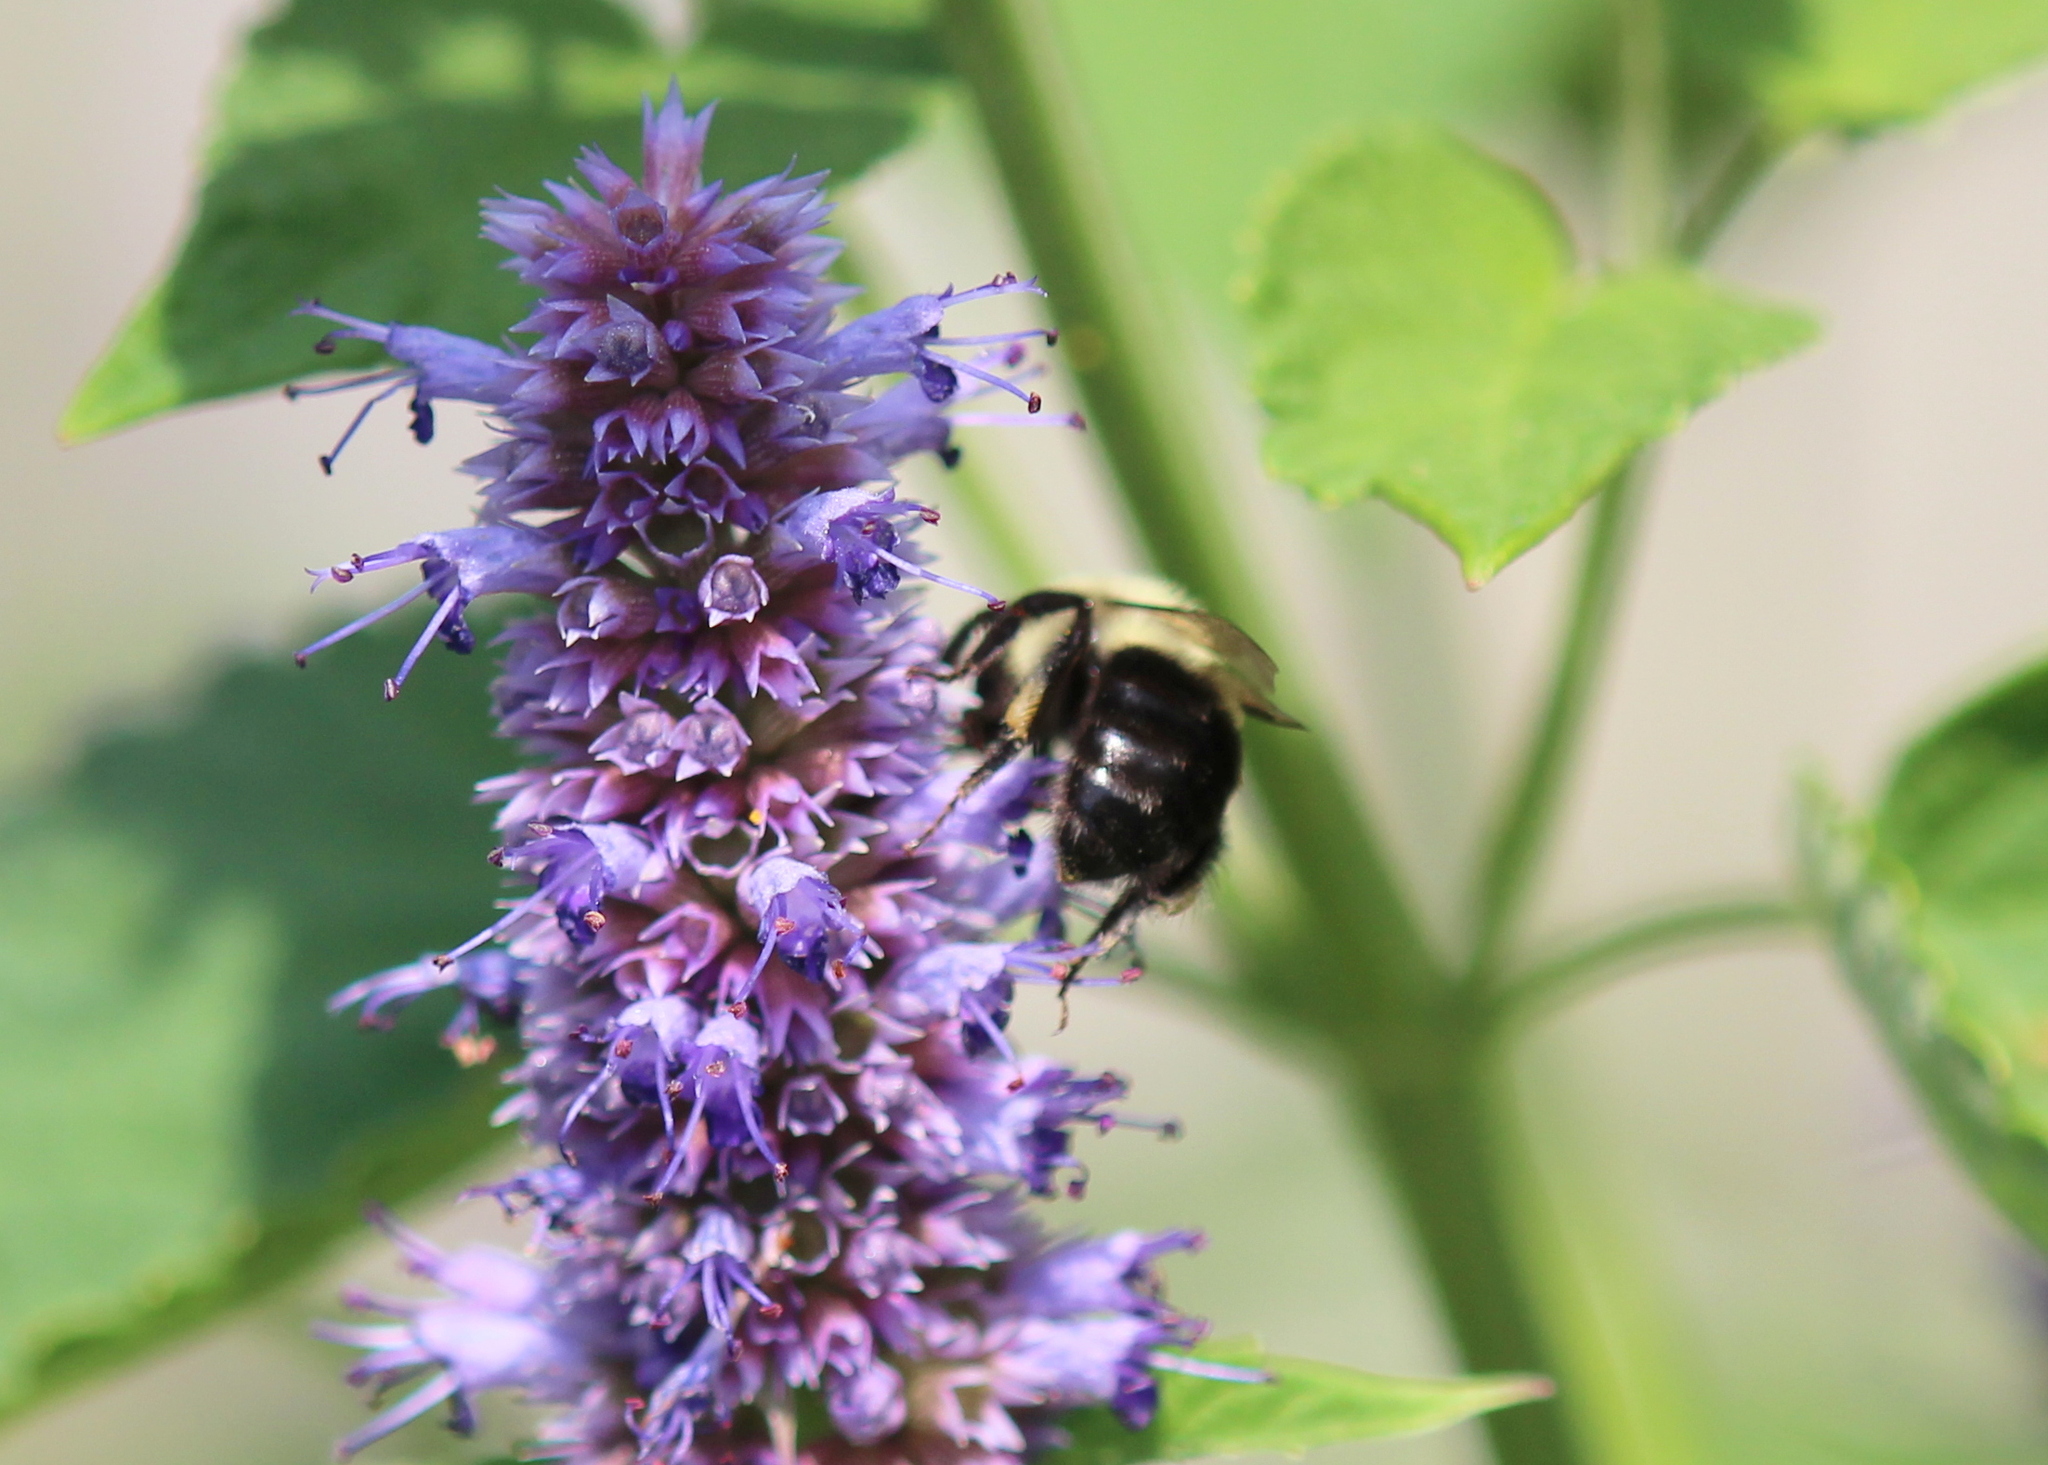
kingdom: Animalia
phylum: Arthropoda
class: Insecta
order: Hymenoptera
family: Apidae
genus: Bombus
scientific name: Bombus impatiens
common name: Common eastern bumble bee
